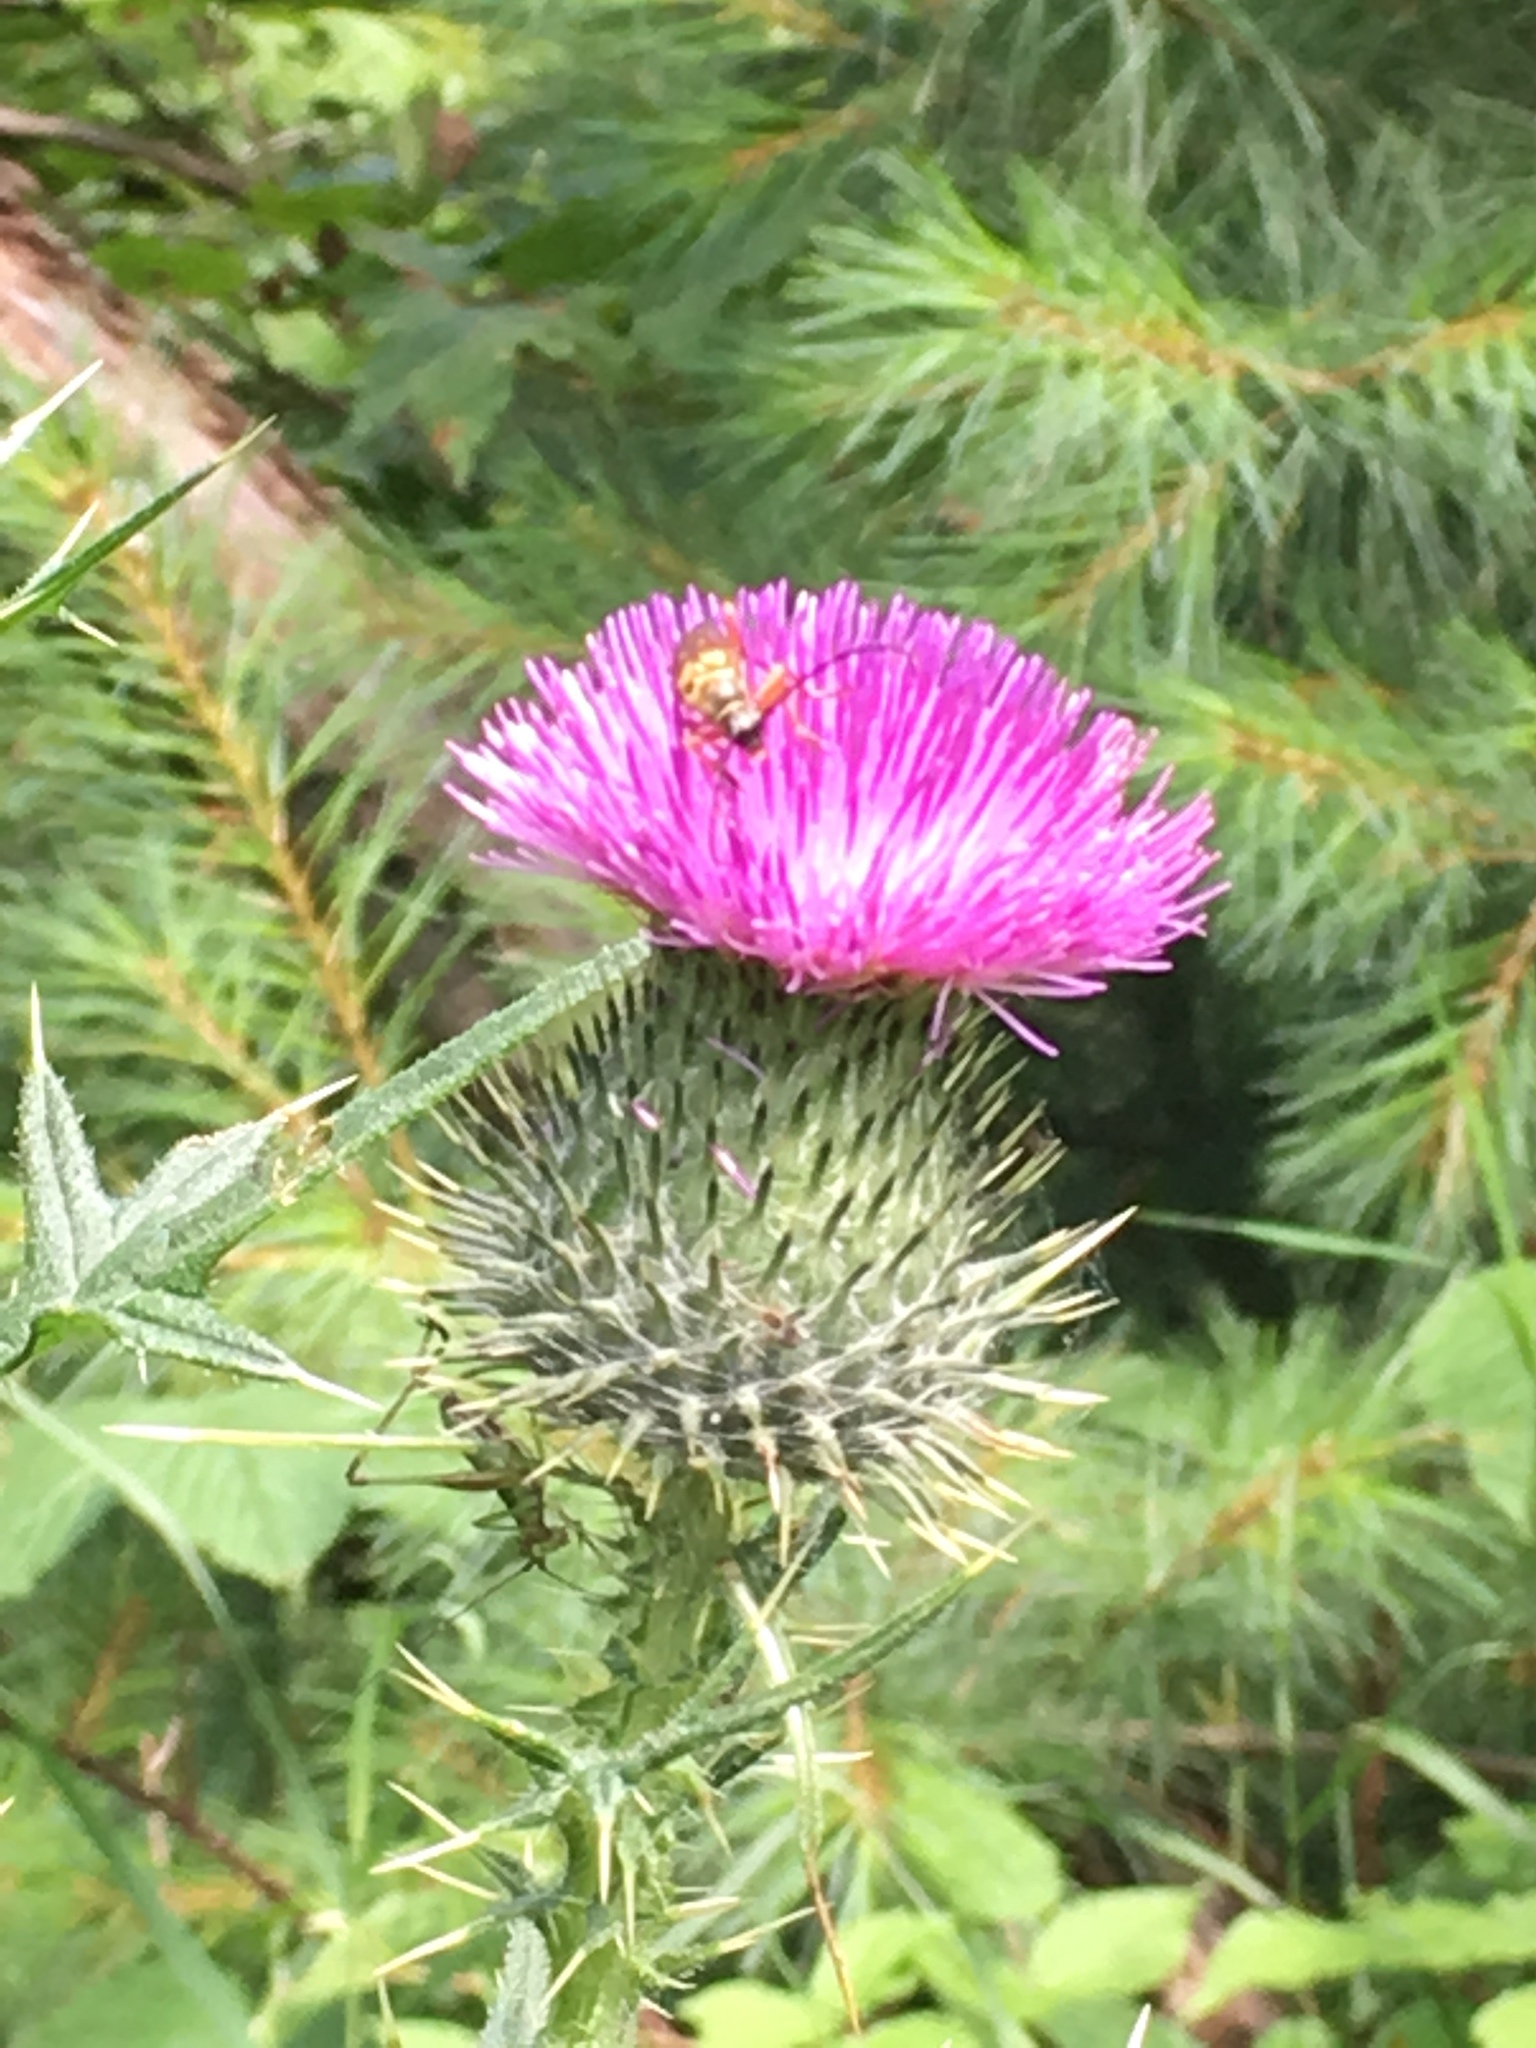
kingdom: Plantae
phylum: Tracheophyta
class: Magnoliopsida
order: Asterales
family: Asteraceae
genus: Cirsium
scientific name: Cirsium vulgare
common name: Bull thistle
